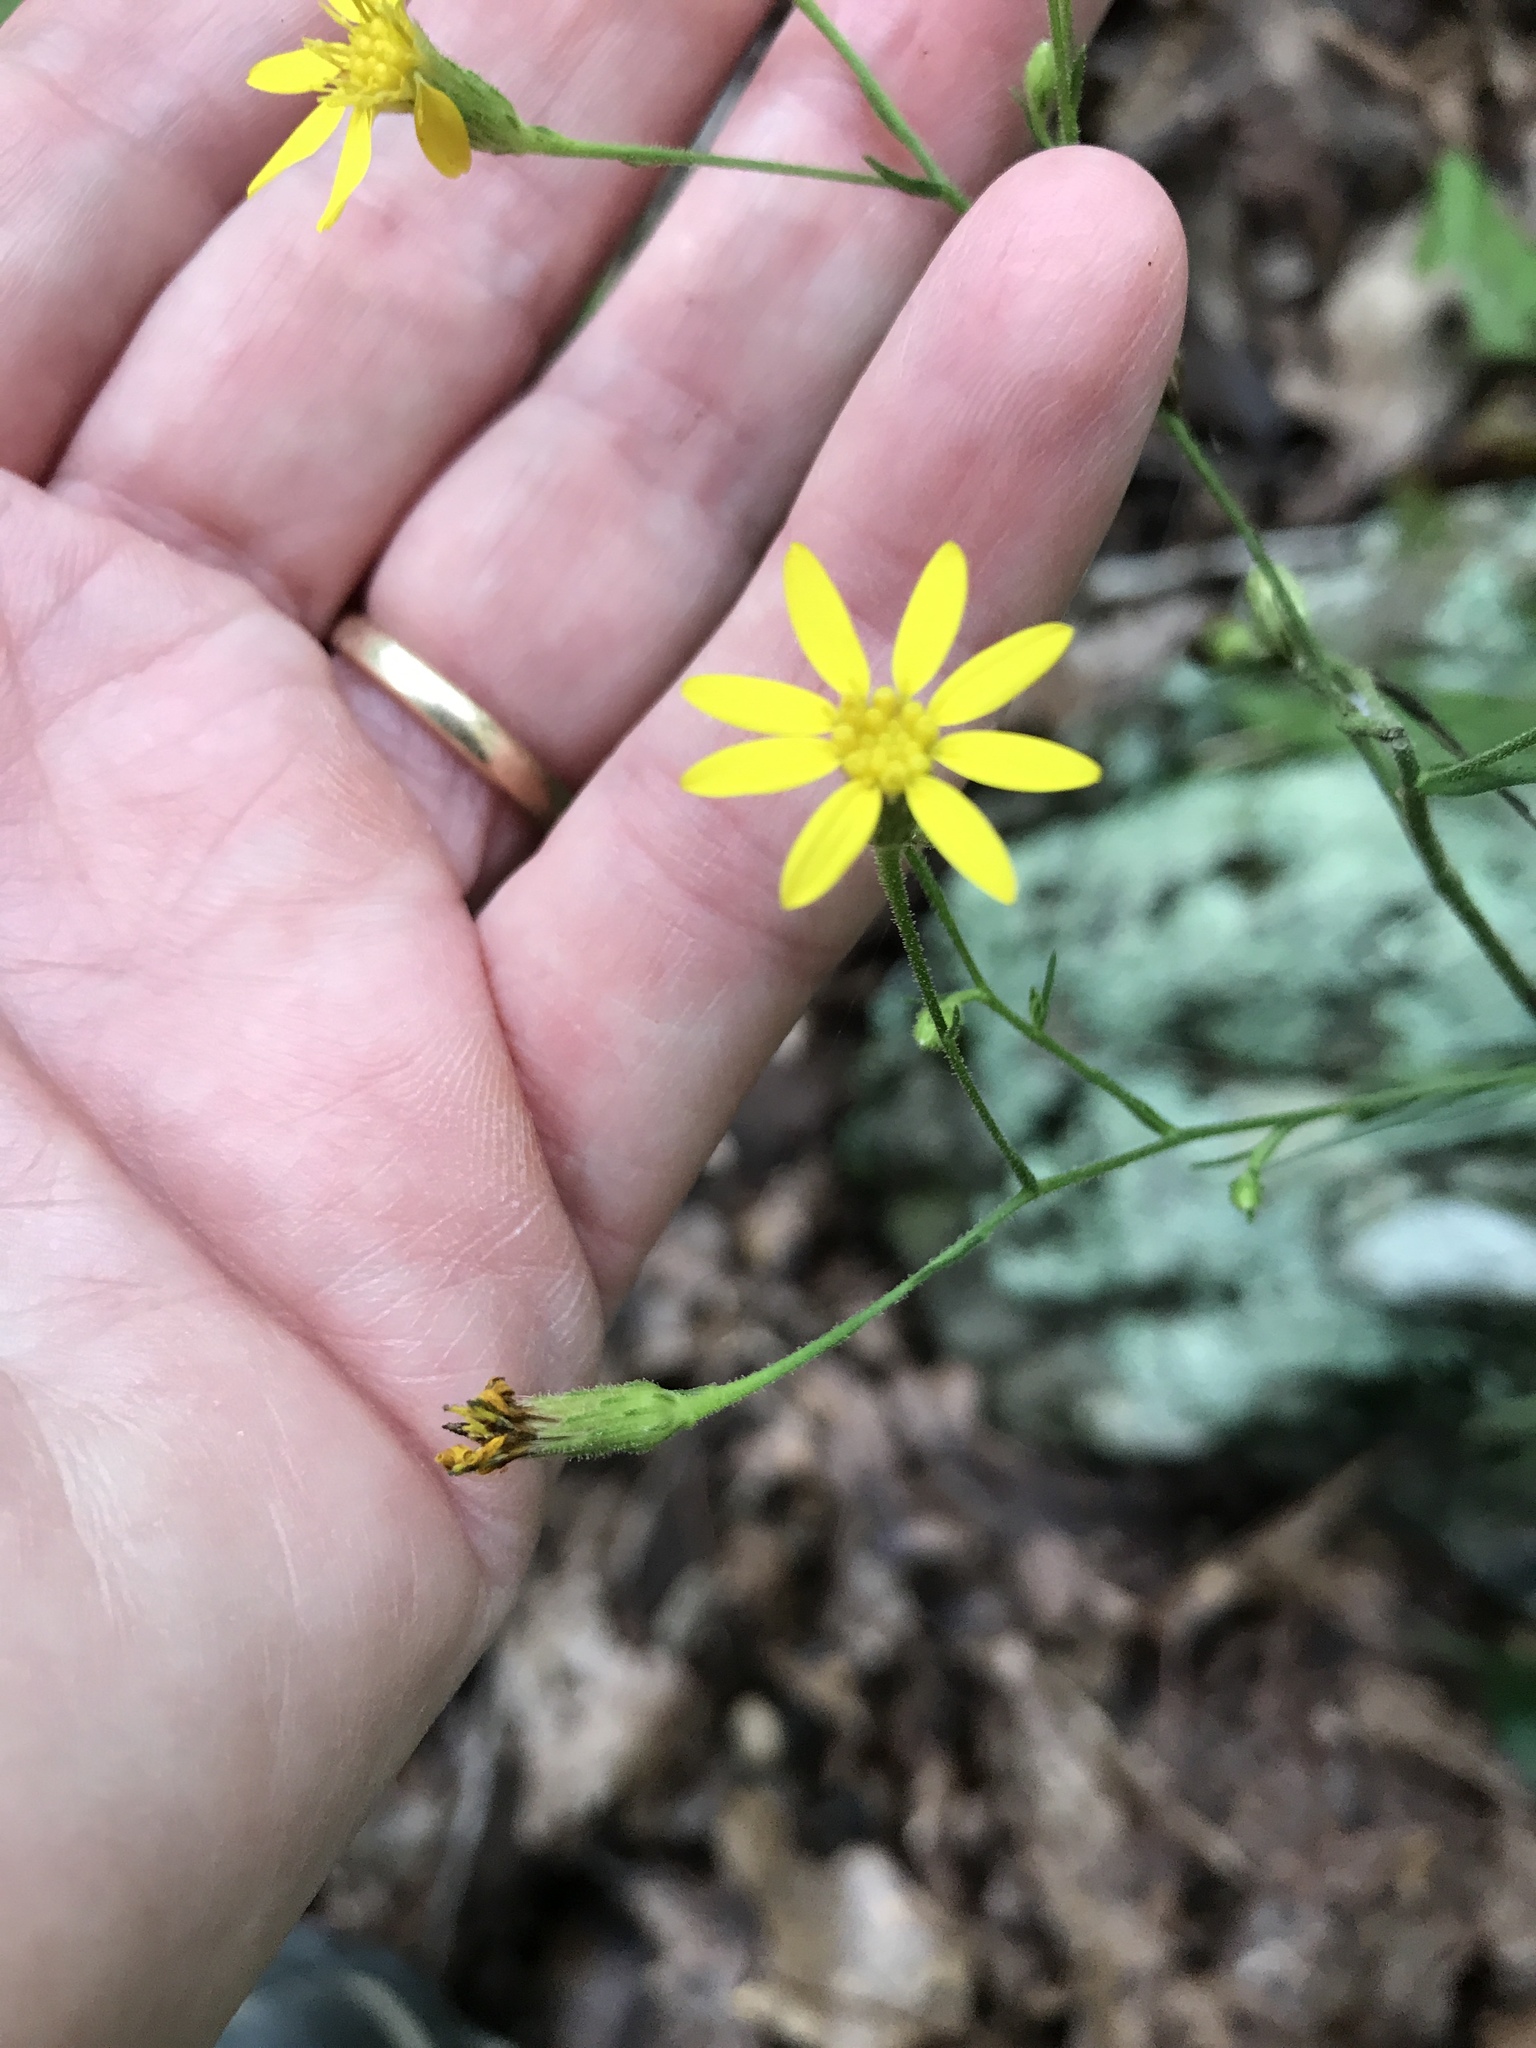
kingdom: Plantae
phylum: Tracheophyta
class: Magnoliopsida
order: Asterales
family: Asteraceae
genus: Pityopsis
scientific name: Pityopsis aspera
